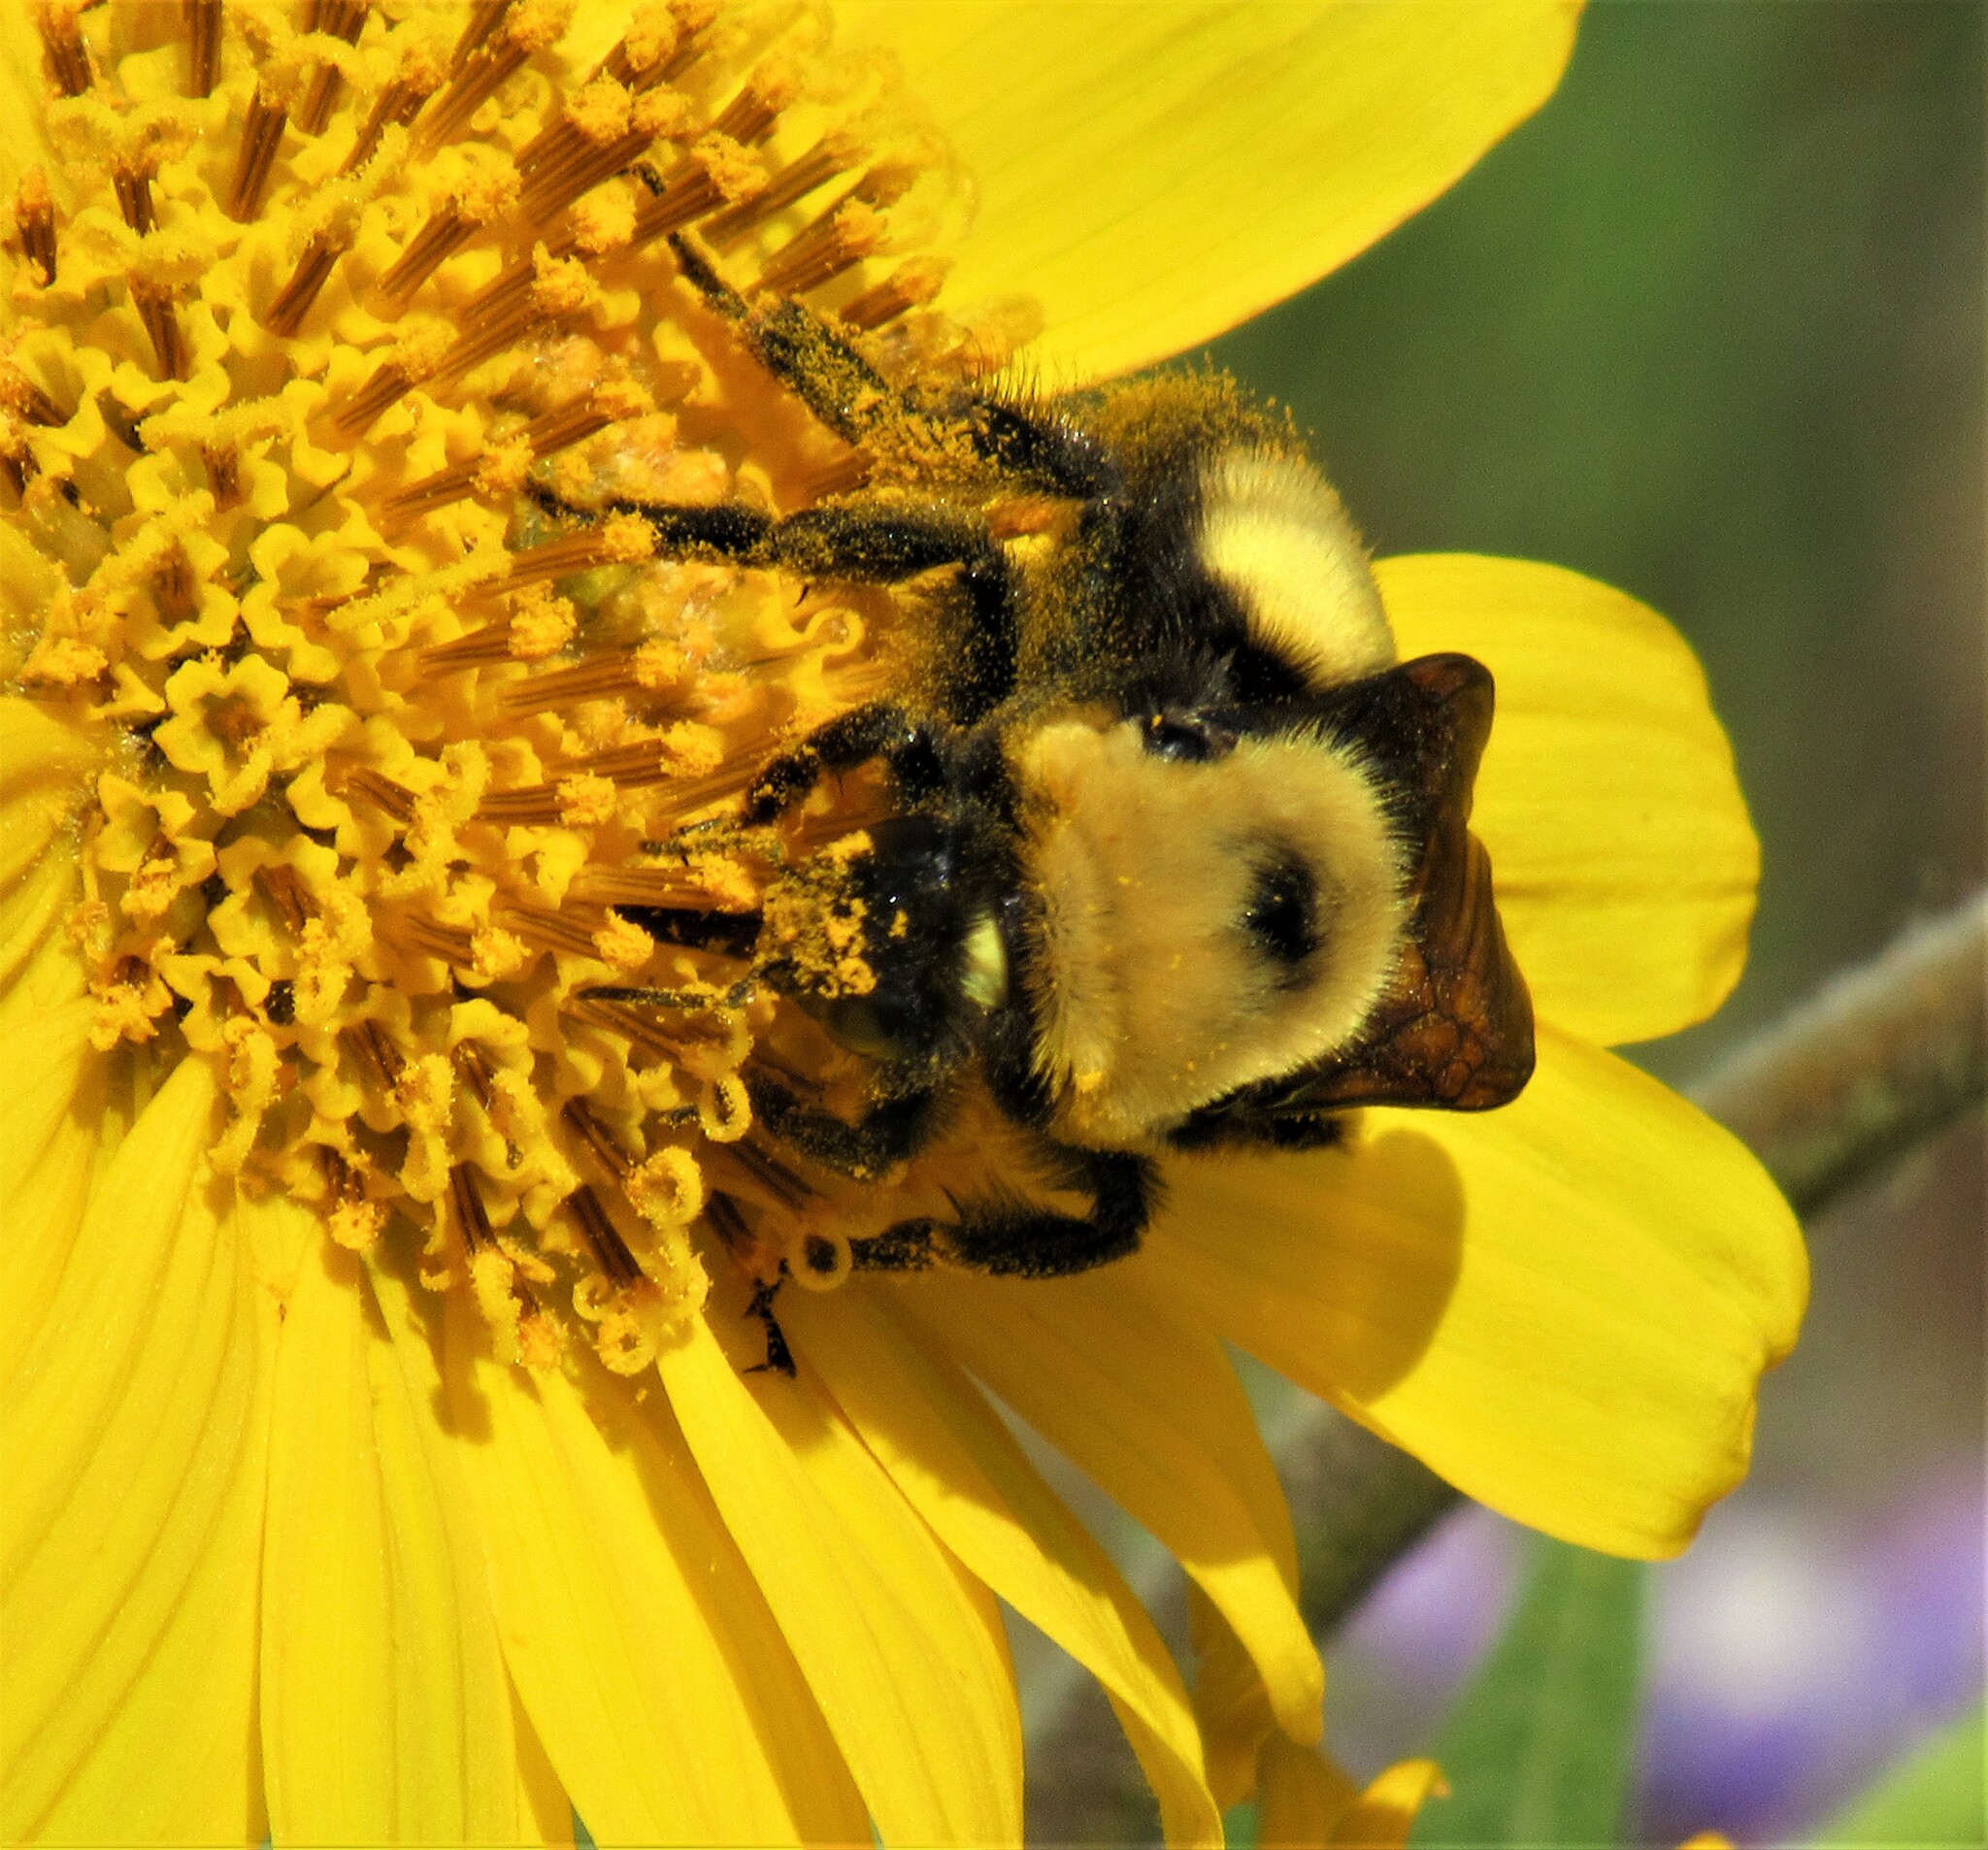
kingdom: Animalia
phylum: Arthropoda
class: Insecta
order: Hymenoptera
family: Apidae
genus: Bombus
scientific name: Bombus nevadensis
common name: Nevada bumble bee
